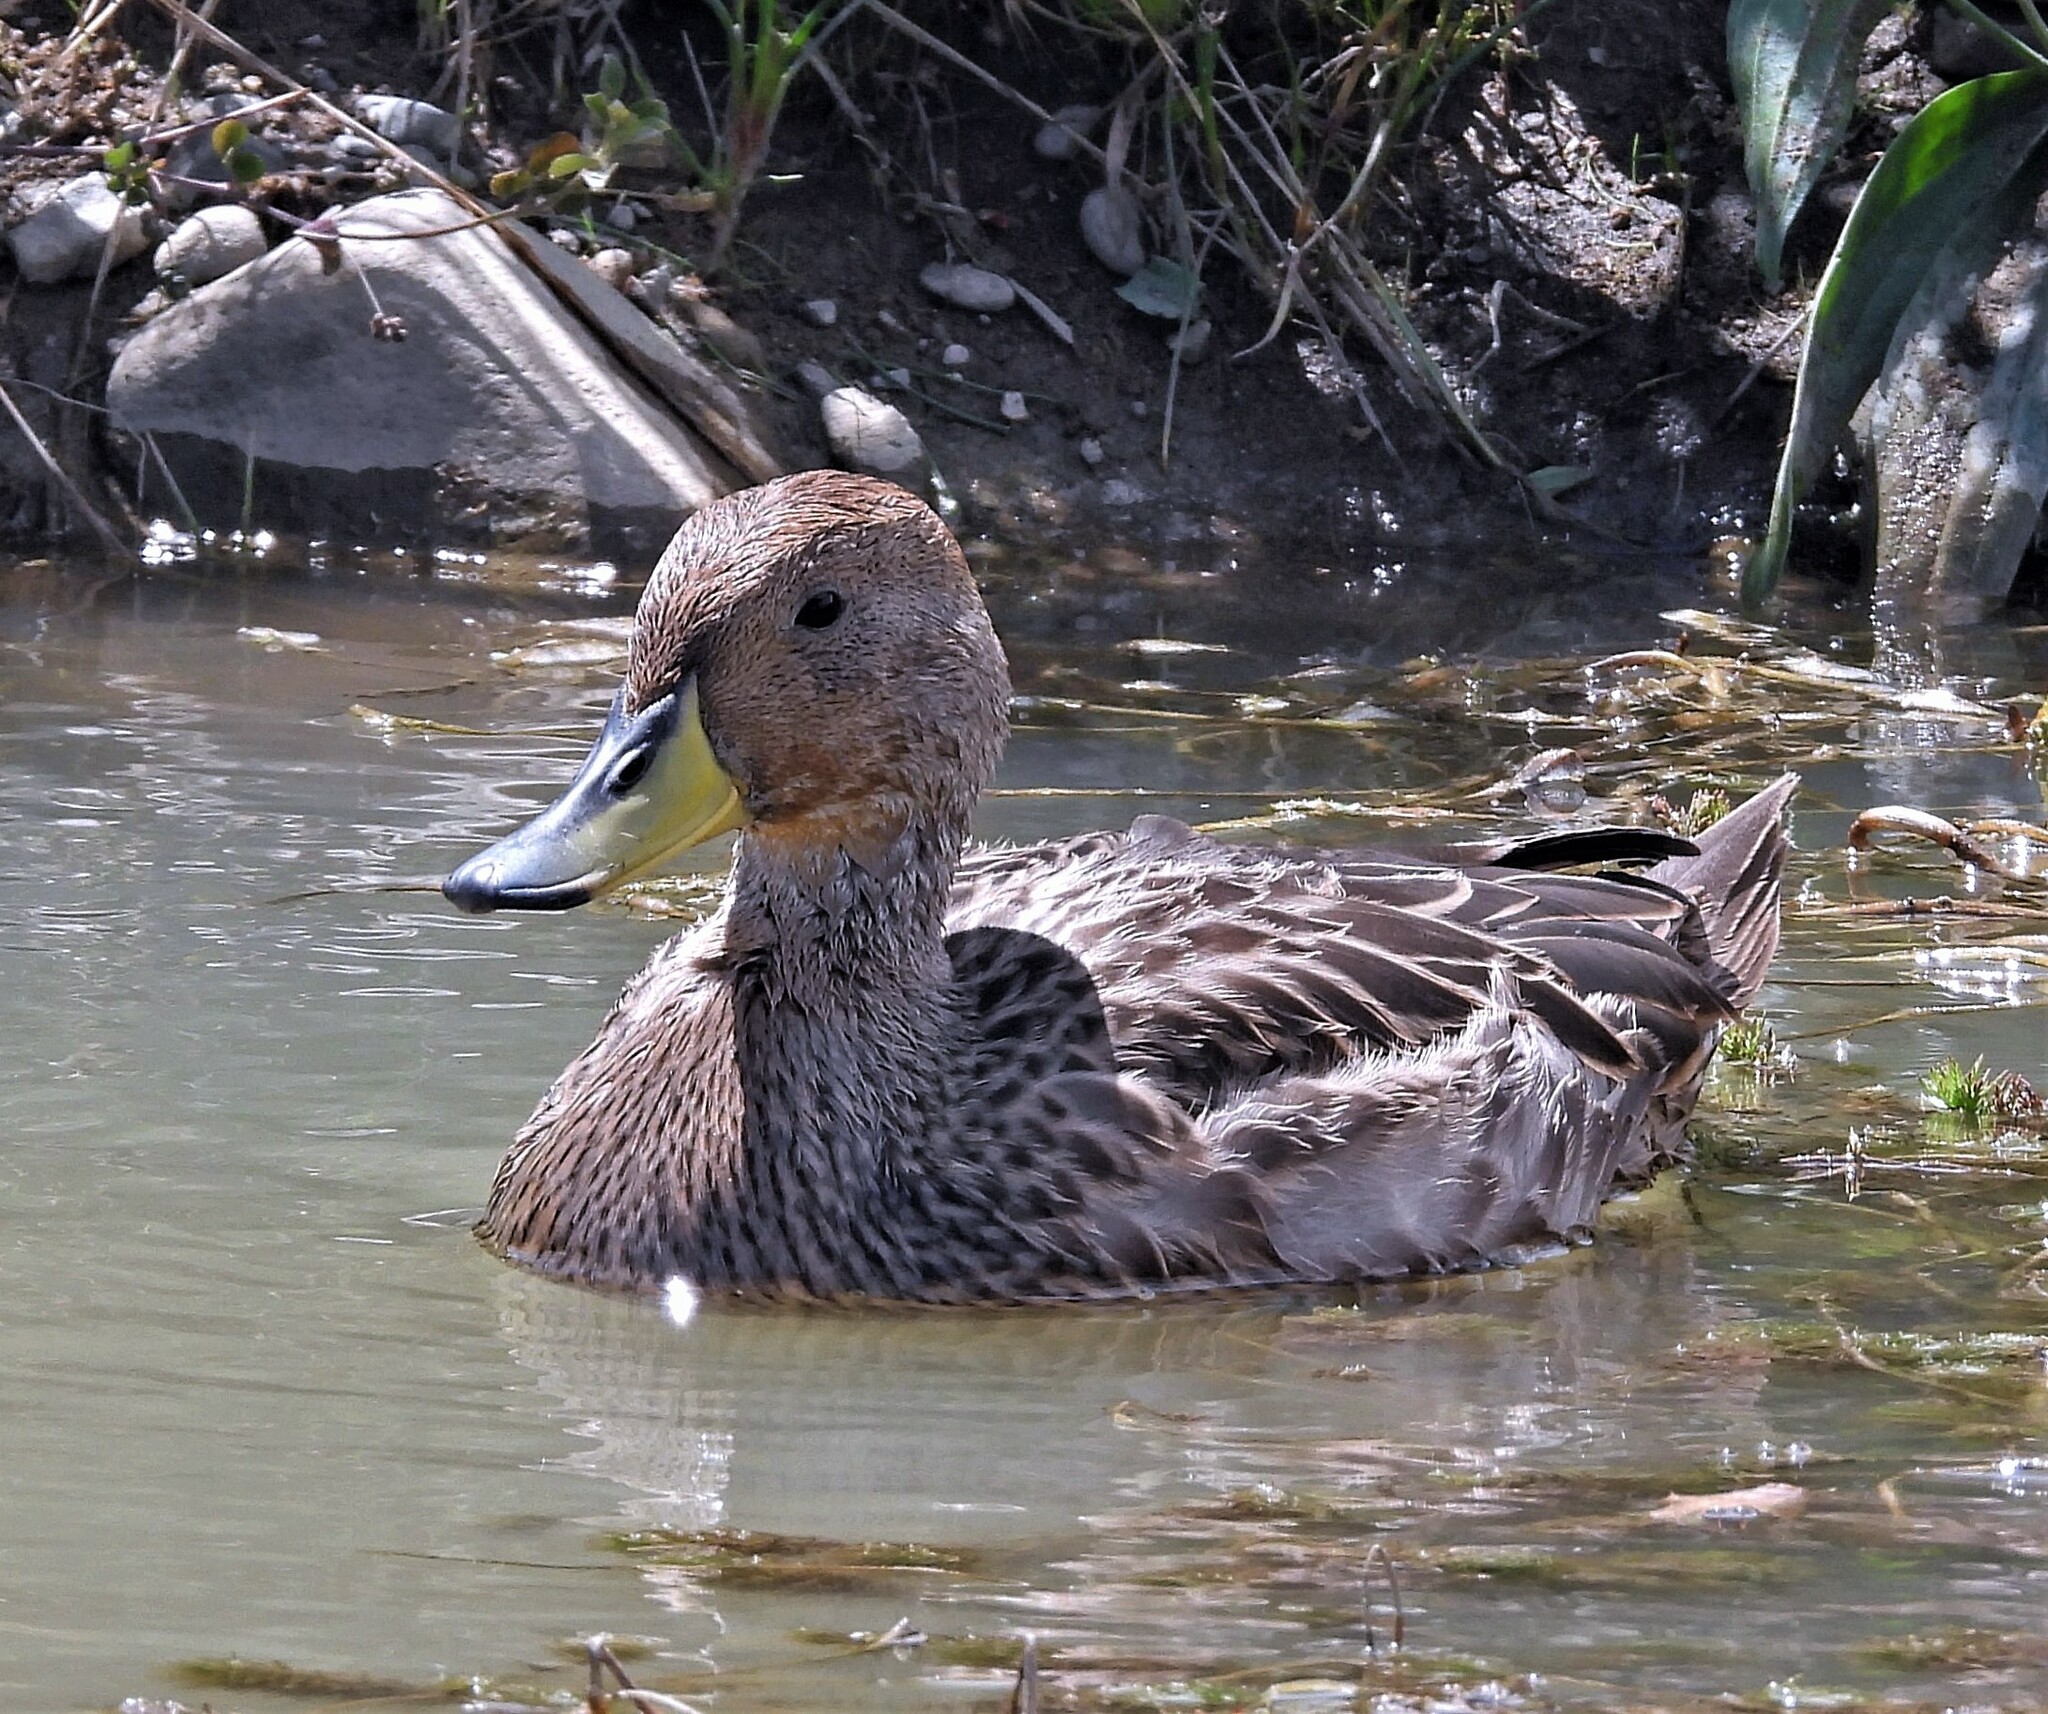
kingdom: Animalia
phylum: Chordata
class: Aves
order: Anseriformes
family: Anatidae
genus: Anas
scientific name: Anas georgica
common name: Yellow-billed pintail
